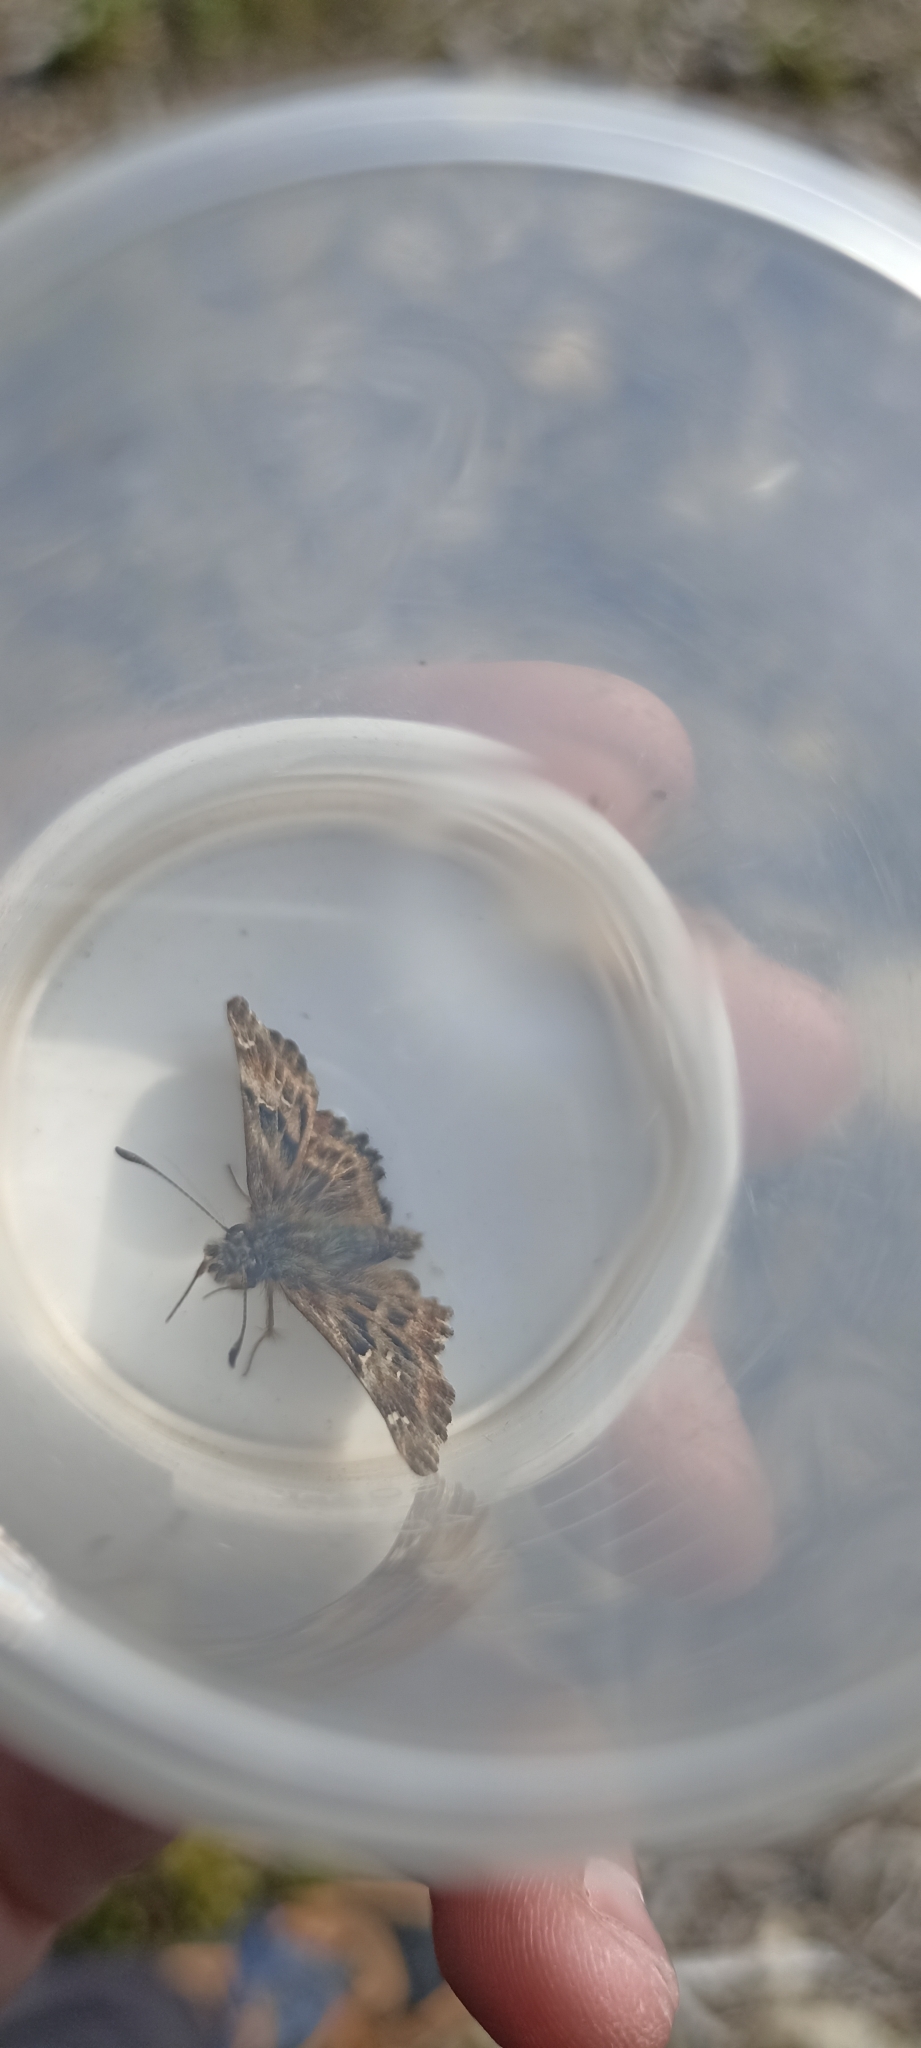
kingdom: Animalia
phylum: Arthropoda
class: Insecta
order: Lepidoptera
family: Hesperiidae
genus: Carcharodus
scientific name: Carcharodus alceae
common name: Mallow skipper
